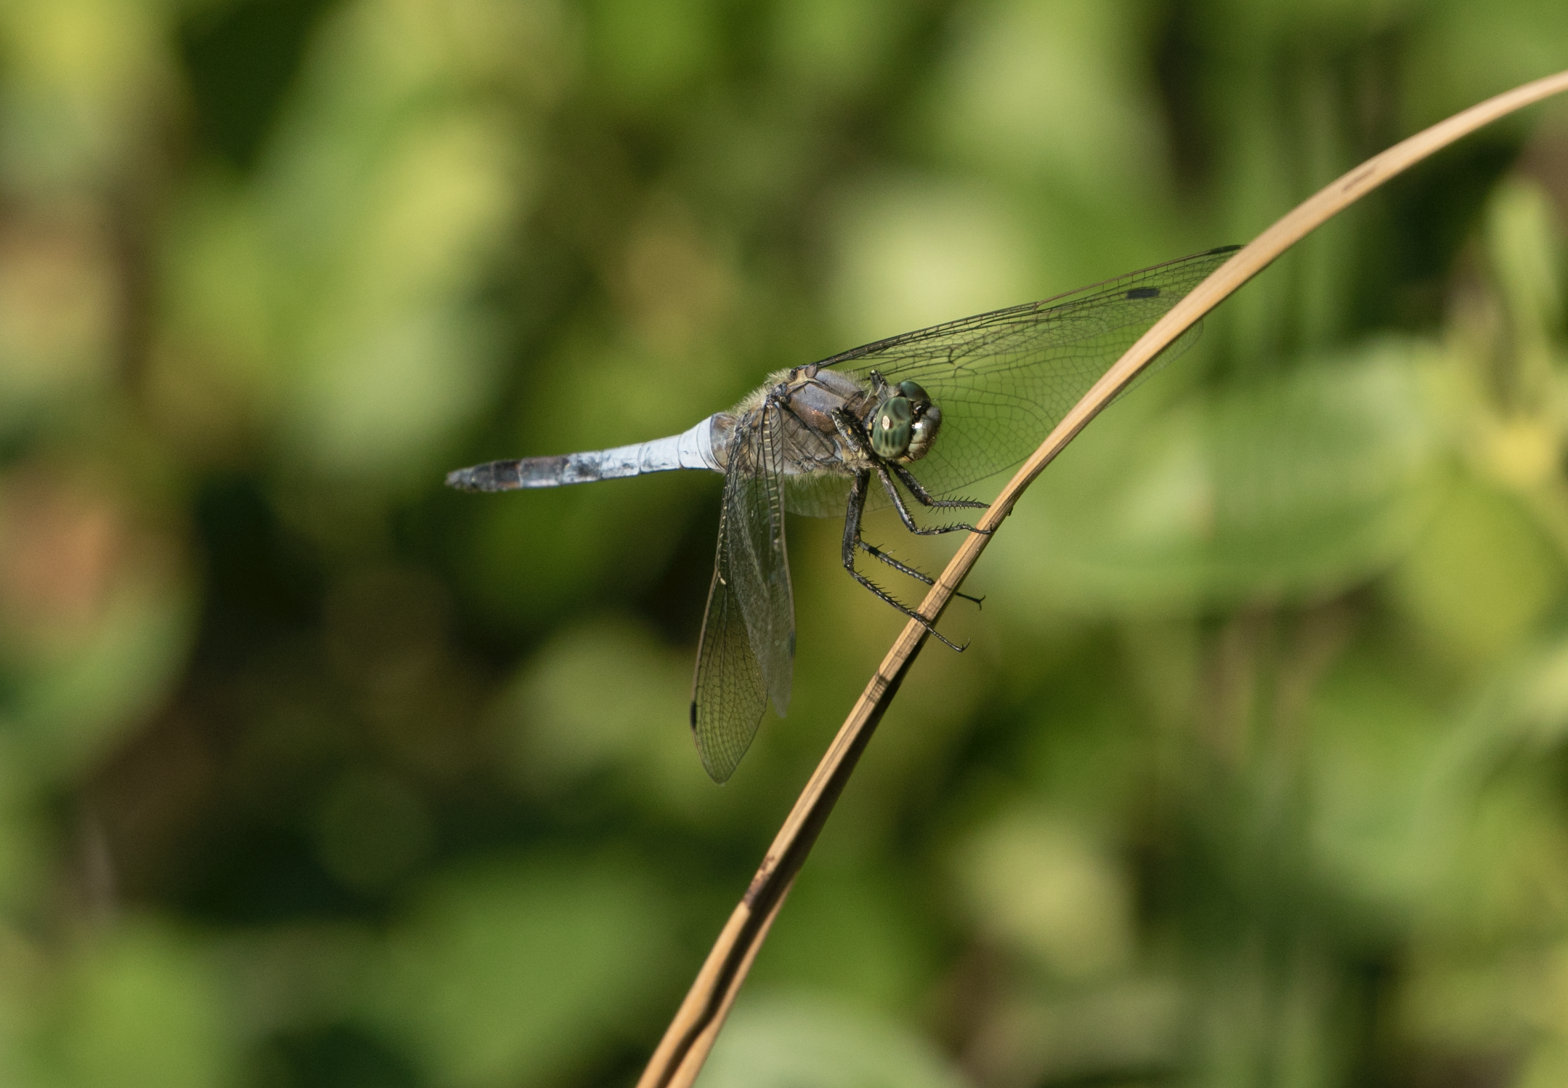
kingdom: Animalia
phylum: Arthropoda
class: Insecta
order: Odonata
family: Libellulidae
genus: Orthetrum
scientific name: Orthetrum cancellatum
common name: Black-tailed skimmer
